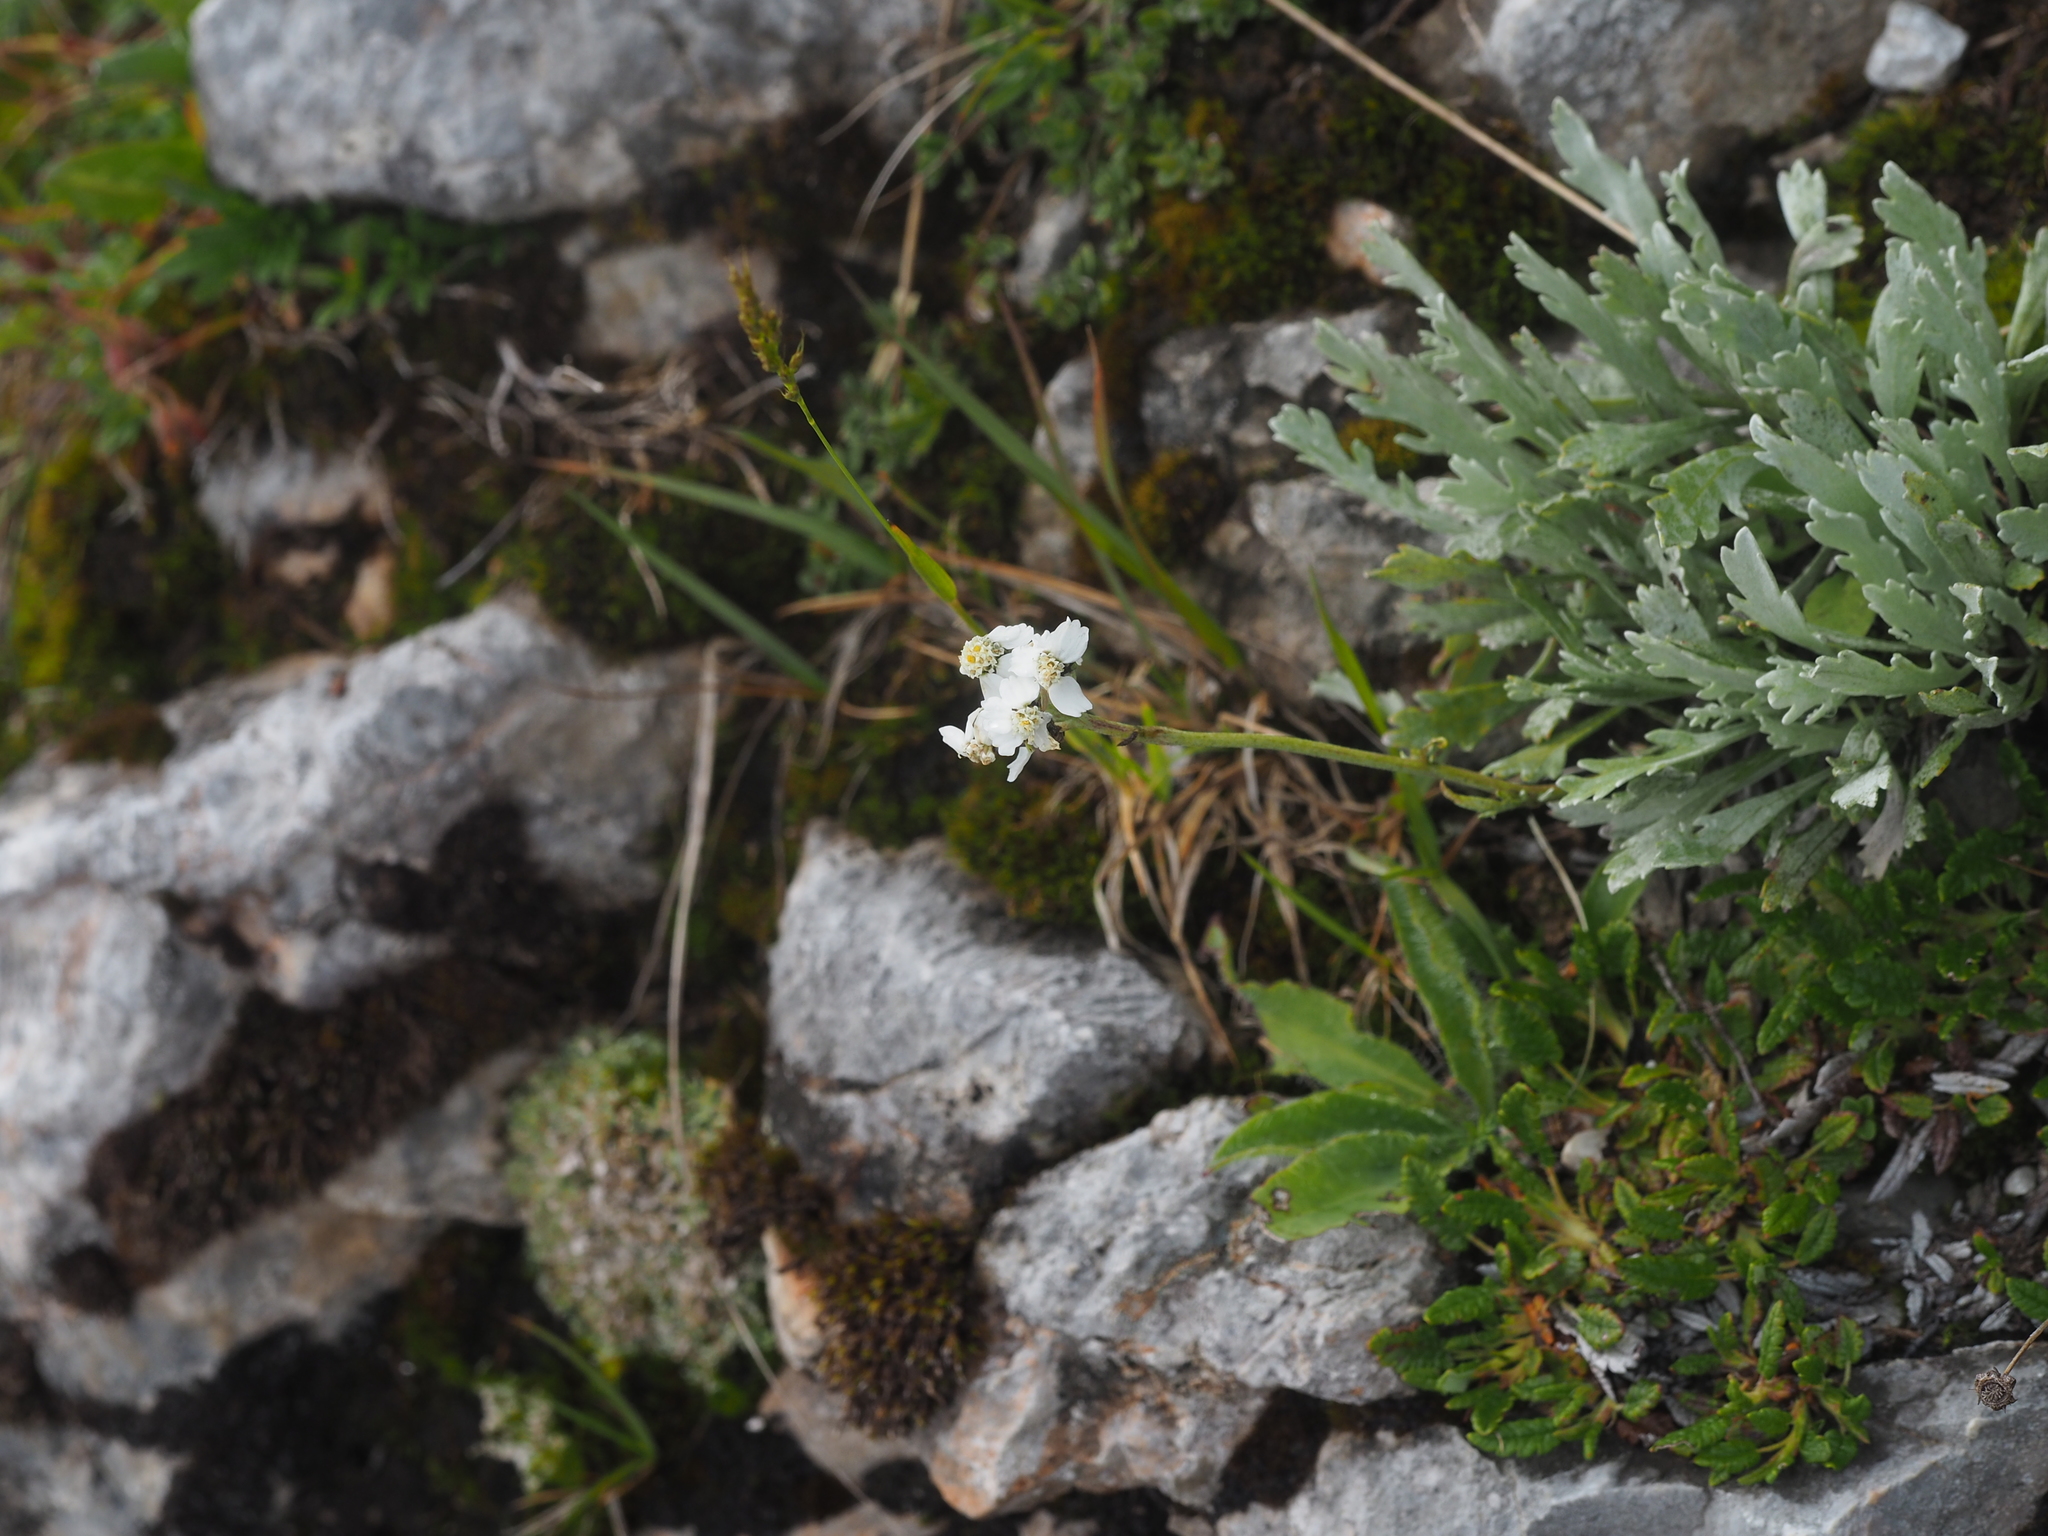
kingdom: Plantae
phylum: Tracheophyta
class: Magnoliopsida
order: Asterales
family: Asteraceae
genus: Achillea
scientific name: Achillea clavennae
